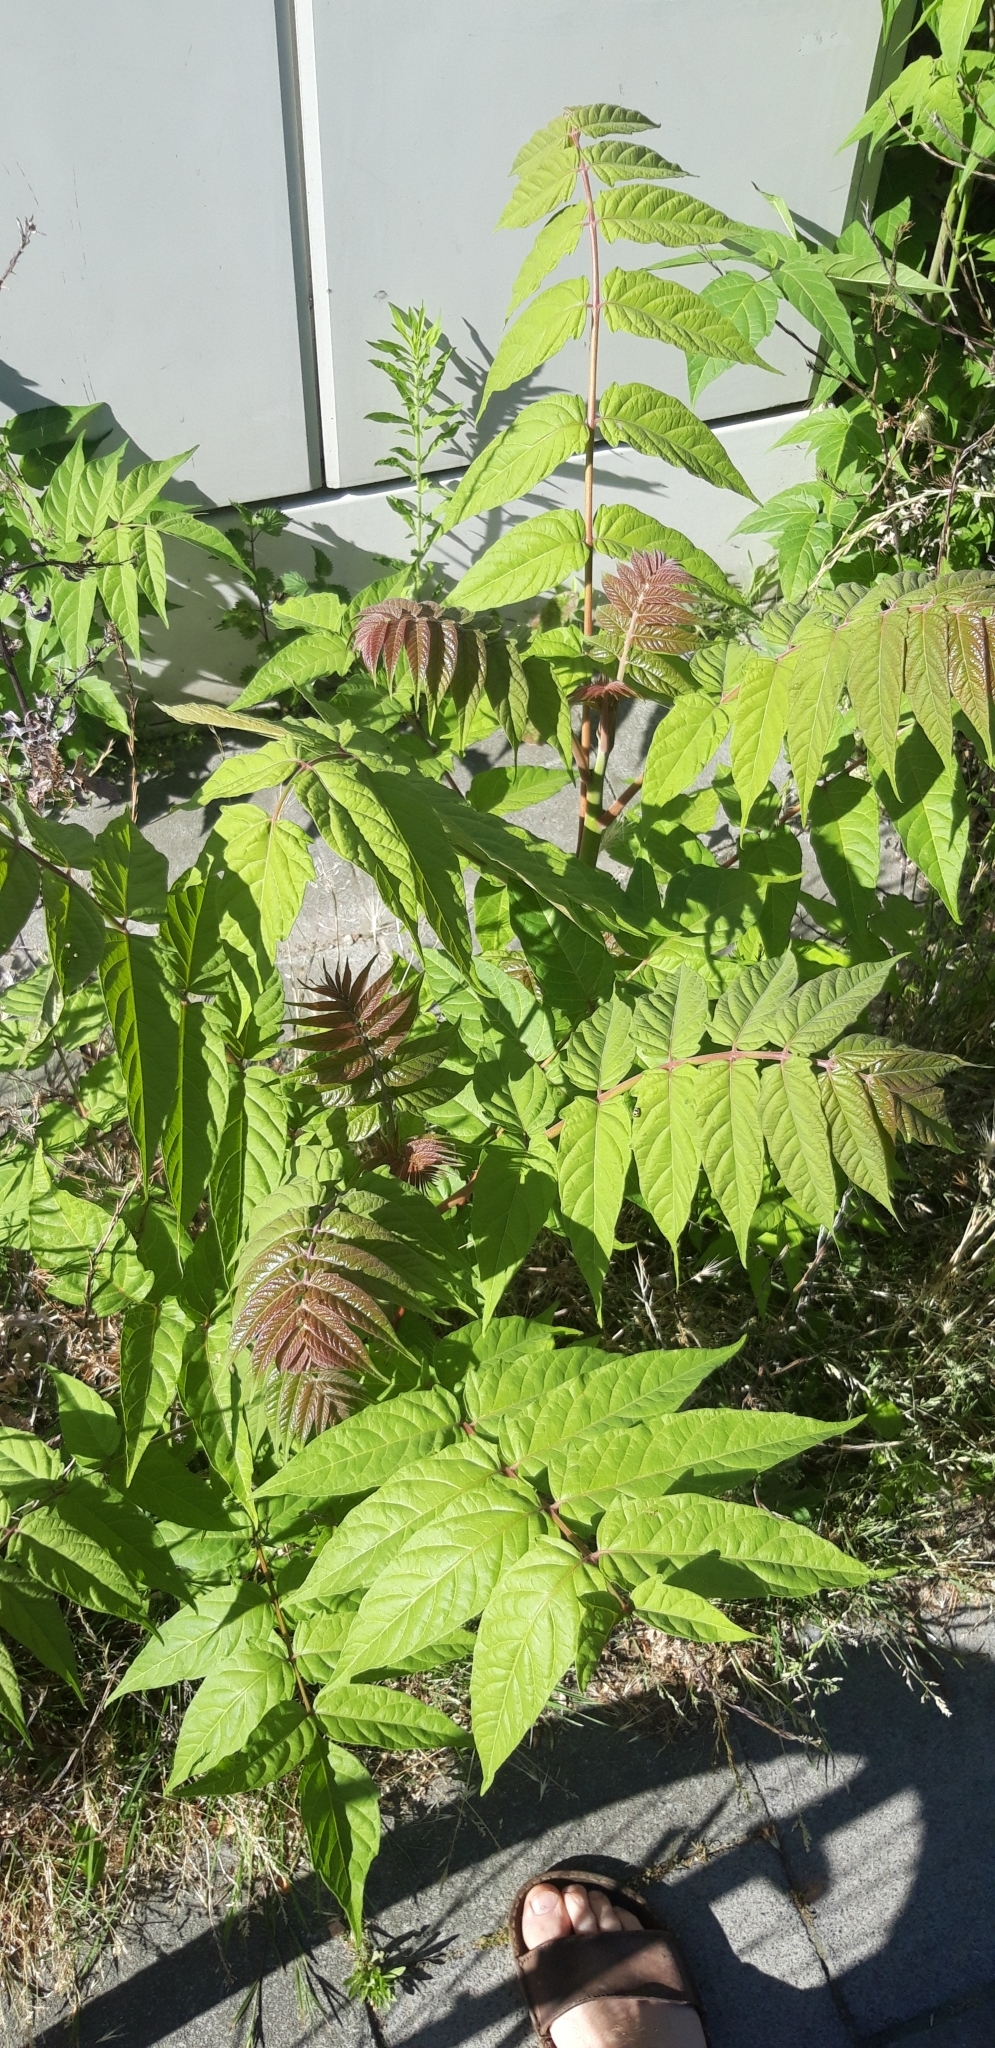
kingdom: Plantae
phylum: Tracheophyta
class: Magnoliopsida
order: Sapindales
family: Simaroubaceae
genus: Ailanthus
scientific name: Ailanthus altissima
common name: Tree-of-heaven
